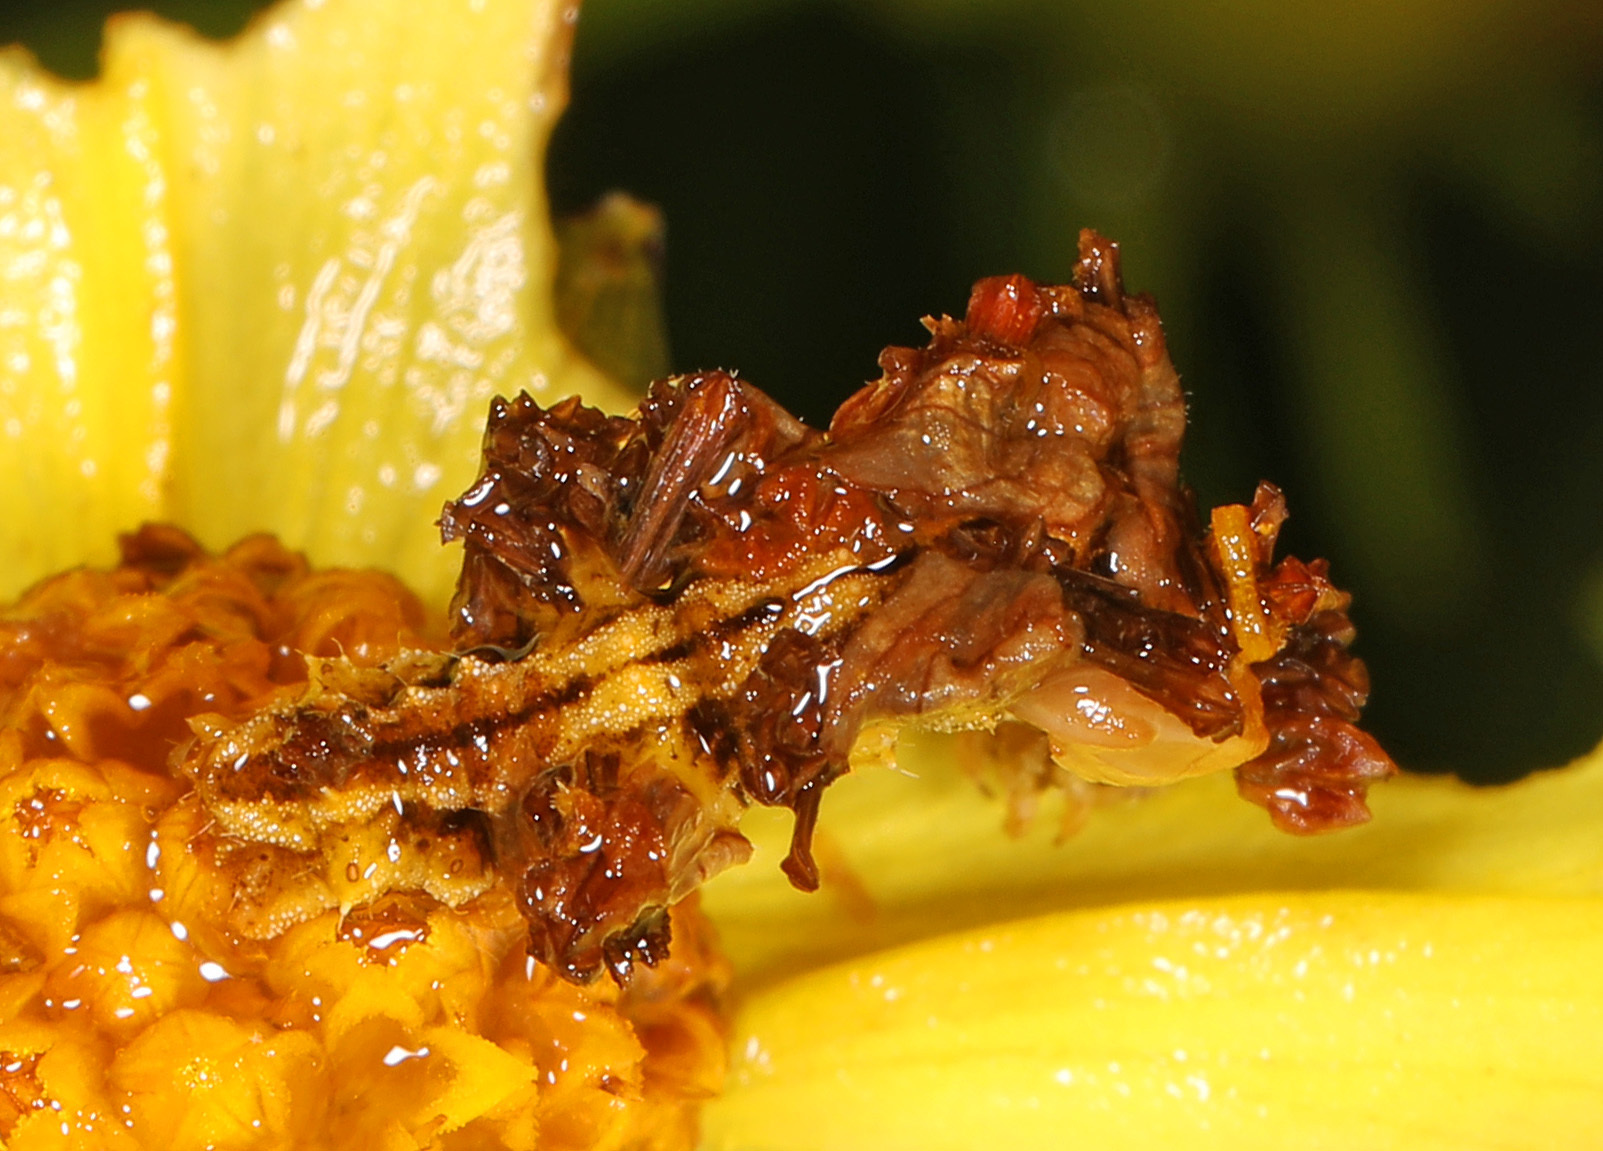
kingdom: Animalia
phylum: Arthropoda
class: Insecta
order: Lepidoptera
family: Geometridae
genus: Synchlora
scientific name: Synchlora aerata
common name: Wavy-lined emerald
